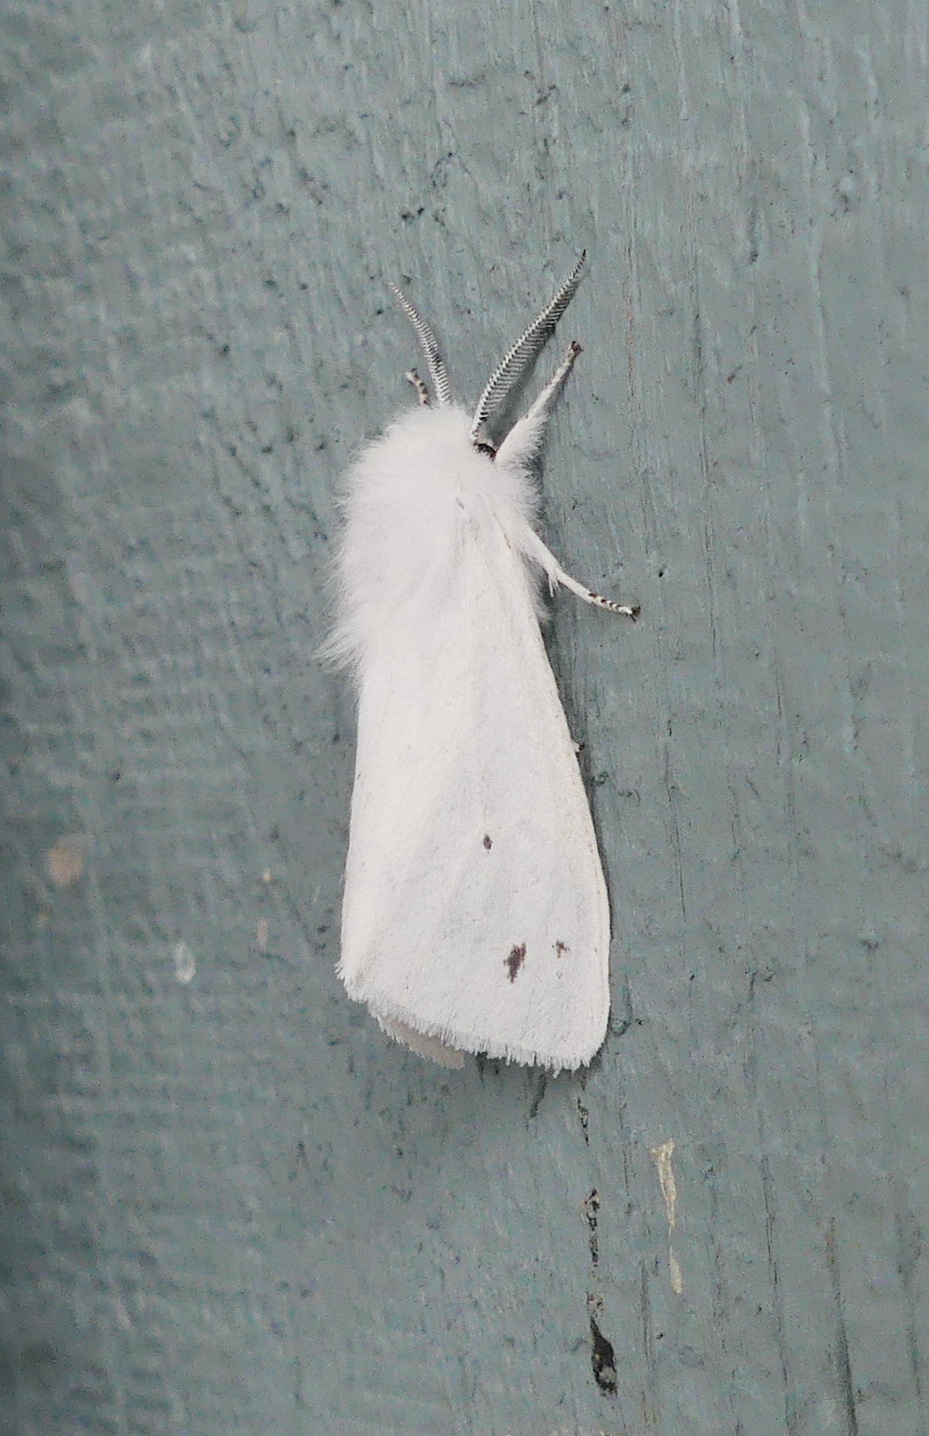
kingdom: Animalia
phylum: Arthropoda
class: Insecta
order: Lepidoptera
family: Erebidae
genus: Spilosoma
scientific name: Spilosoma virginica
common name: Virginia tiger moth
